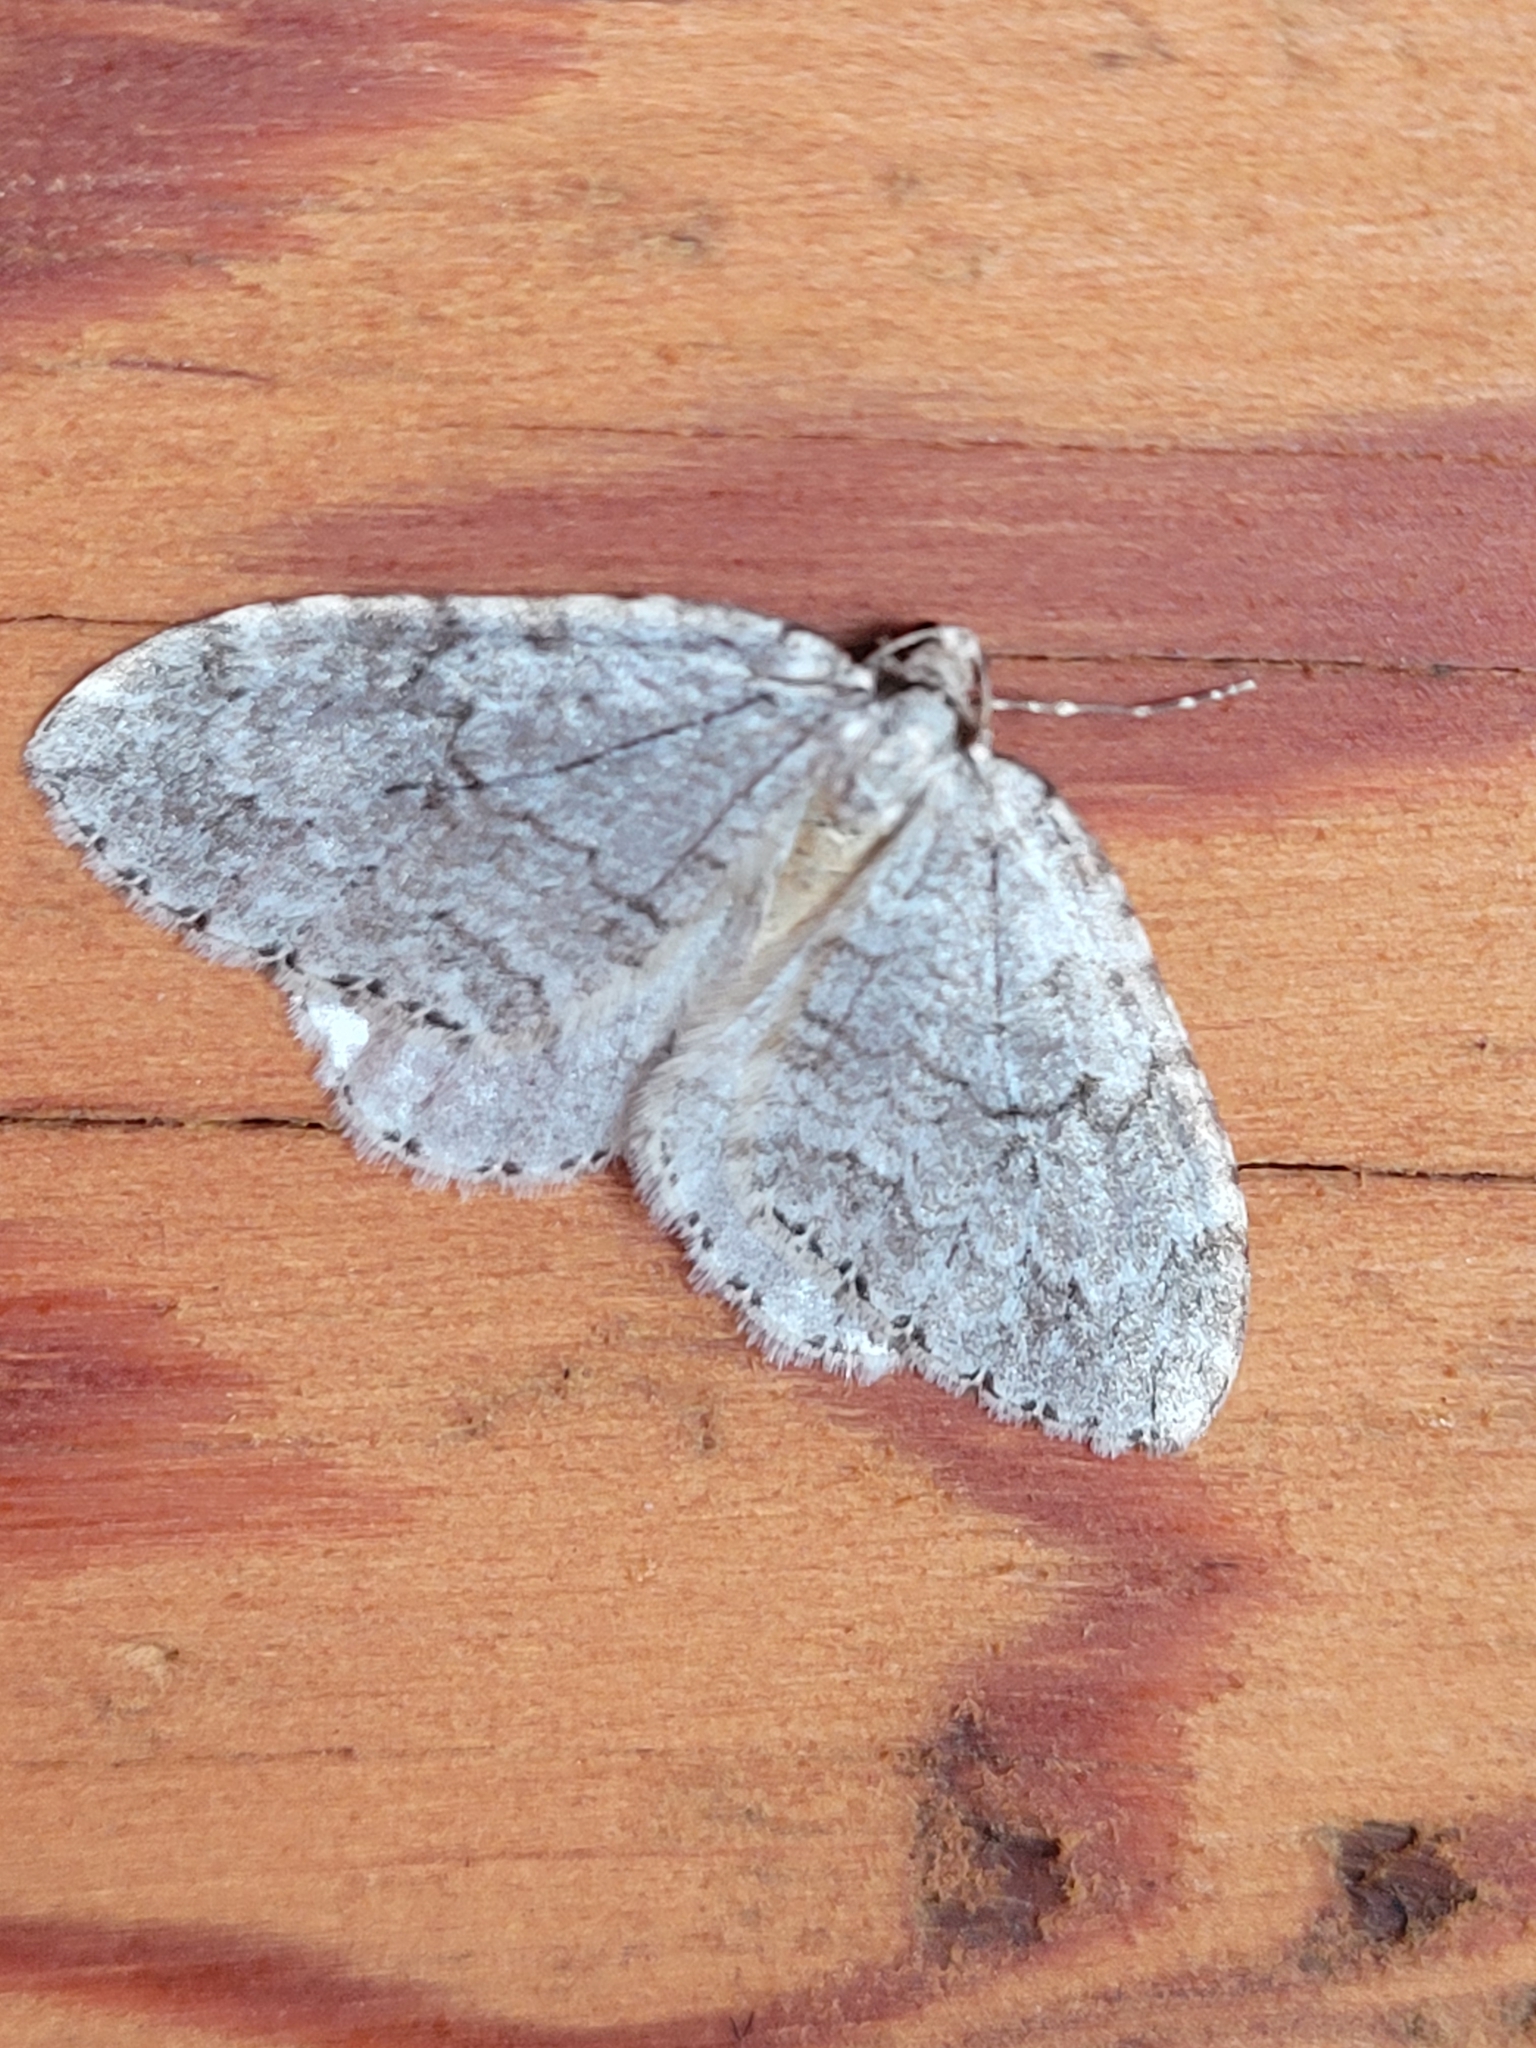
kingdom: Animalia
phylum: Arthropoda
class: Insecta
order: Lepidoptera
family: Geometridae
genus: Epirrita
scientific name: Epirrita autumnata
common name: Autumnal moth
